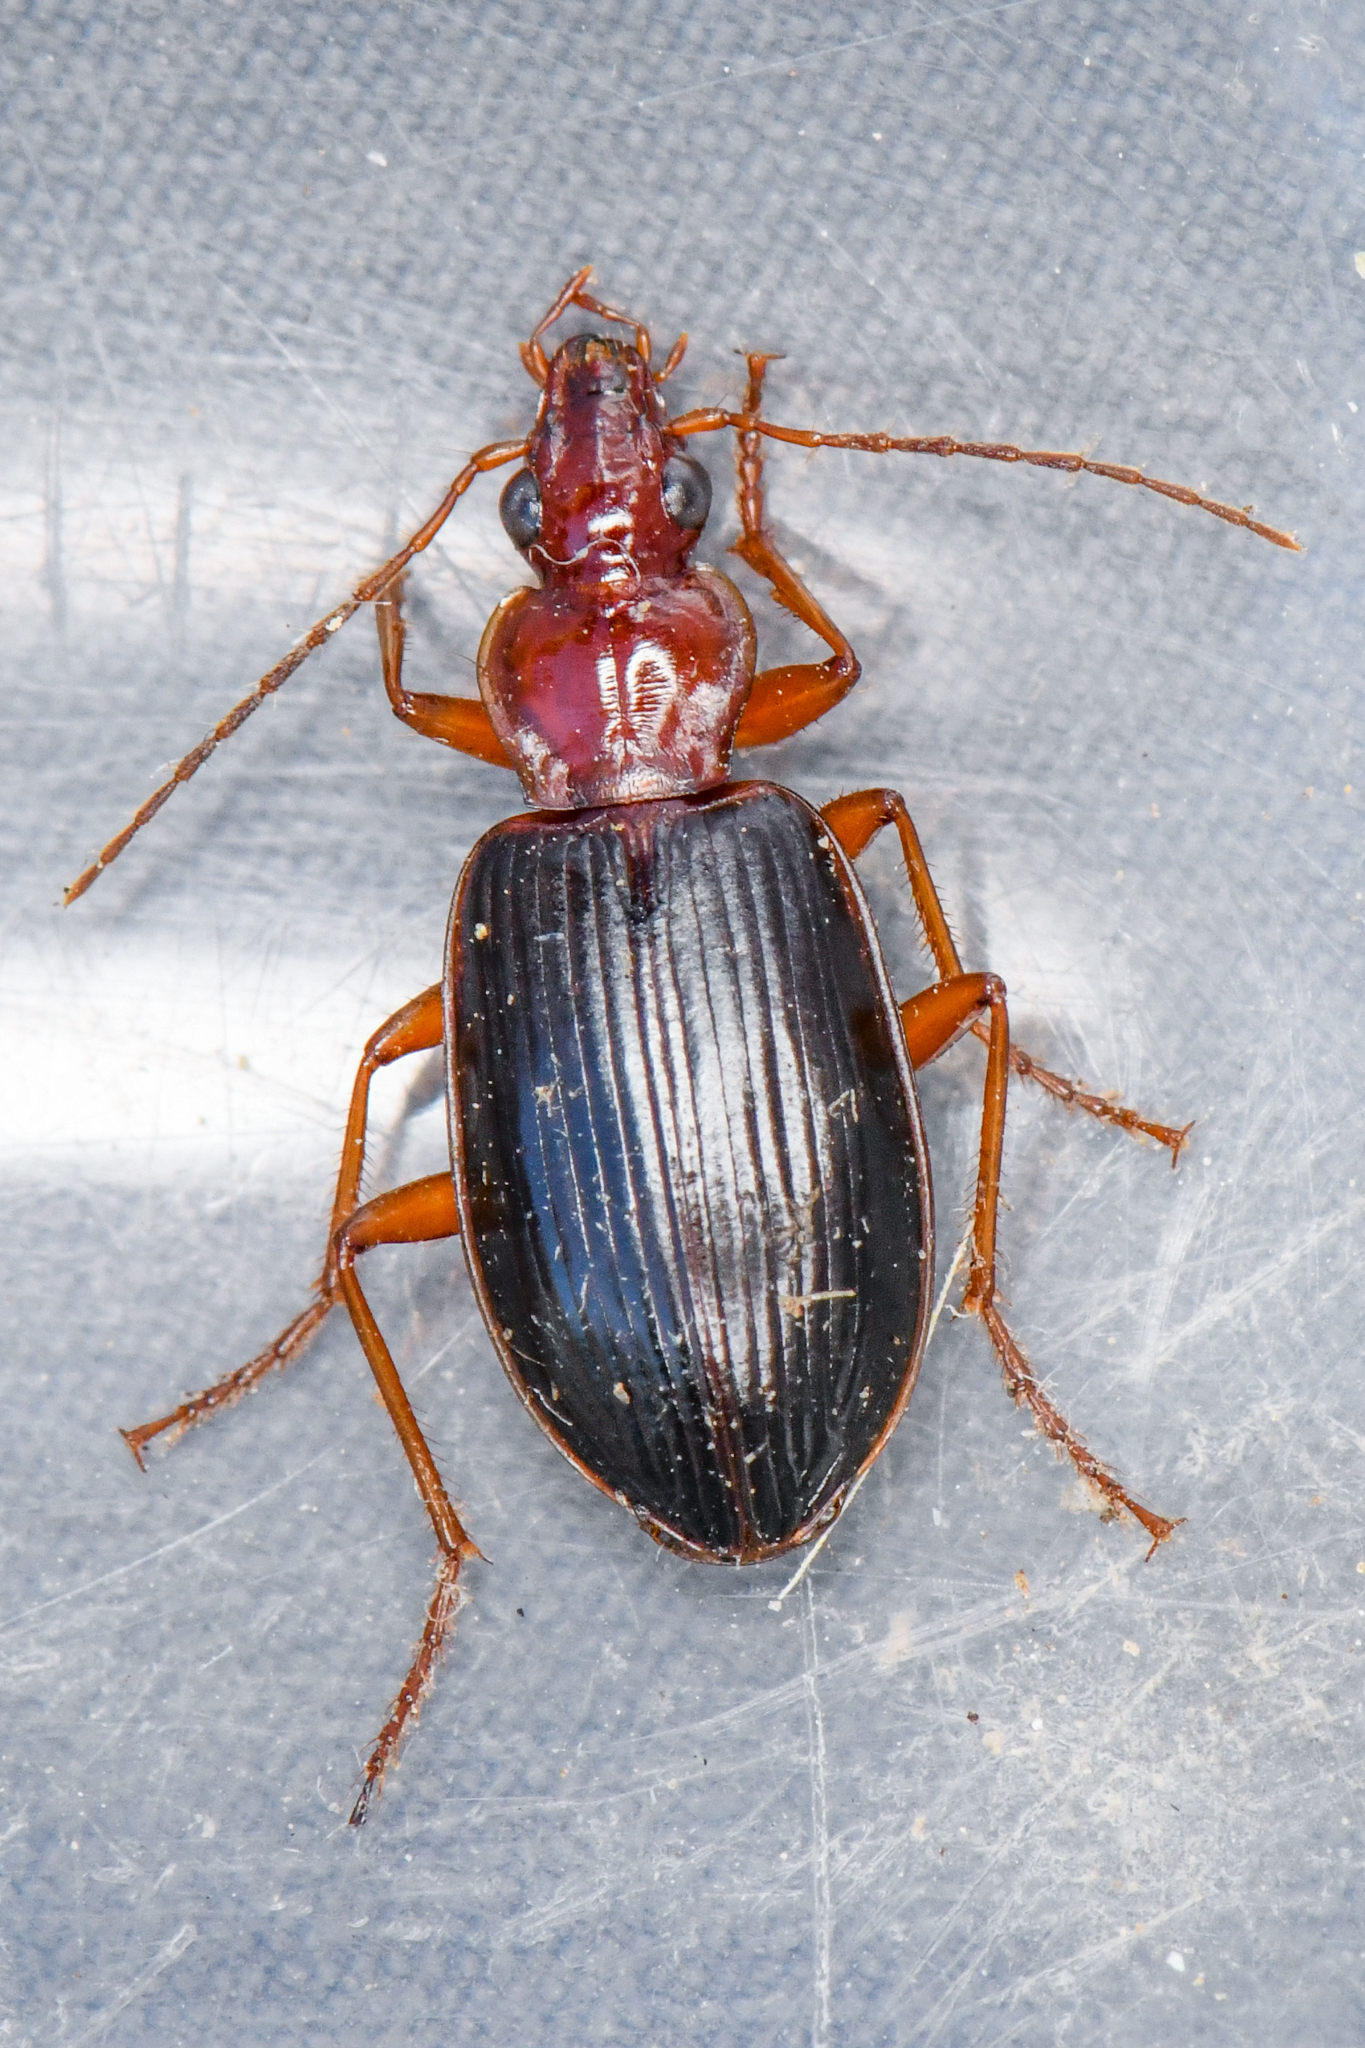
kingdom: Animalia
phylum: Arthropoda
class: Insecta
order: Coleoptera
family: Carabidae
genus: Platynus
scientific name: Platynus brunneomarginatus
